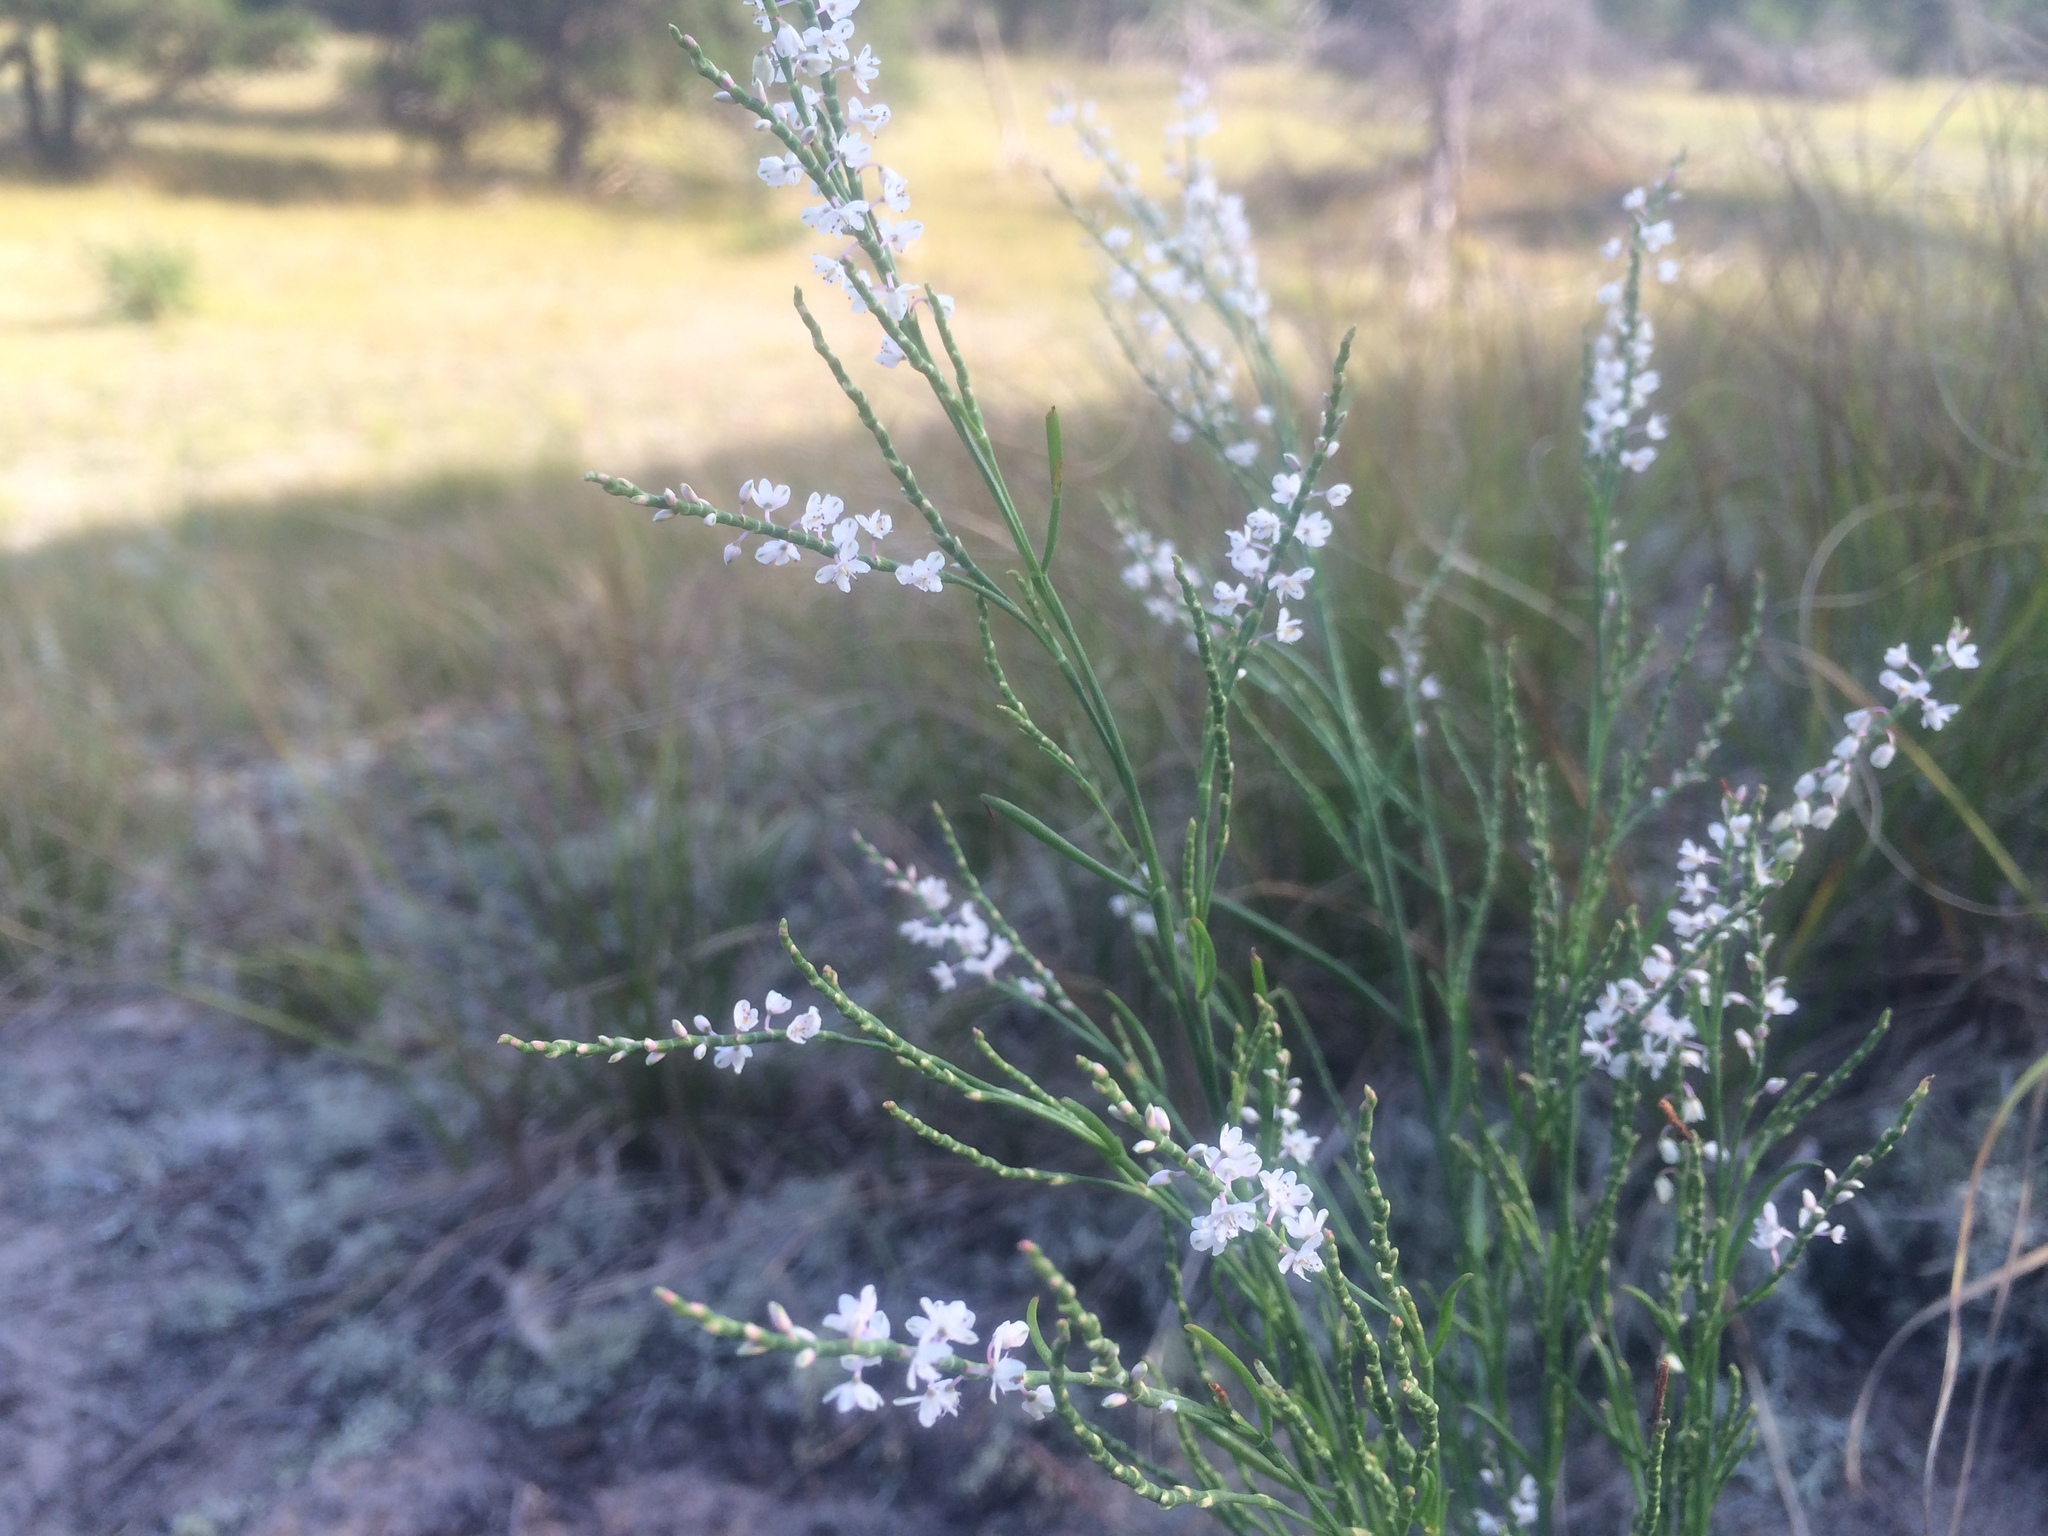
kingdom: Plantae
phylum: Tracheophyta
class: Magnoliopsida
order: Caryophyllales
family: Polygonaceae
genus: Polygonella
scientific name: Polygonella articulata
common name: Coastal jointweed
